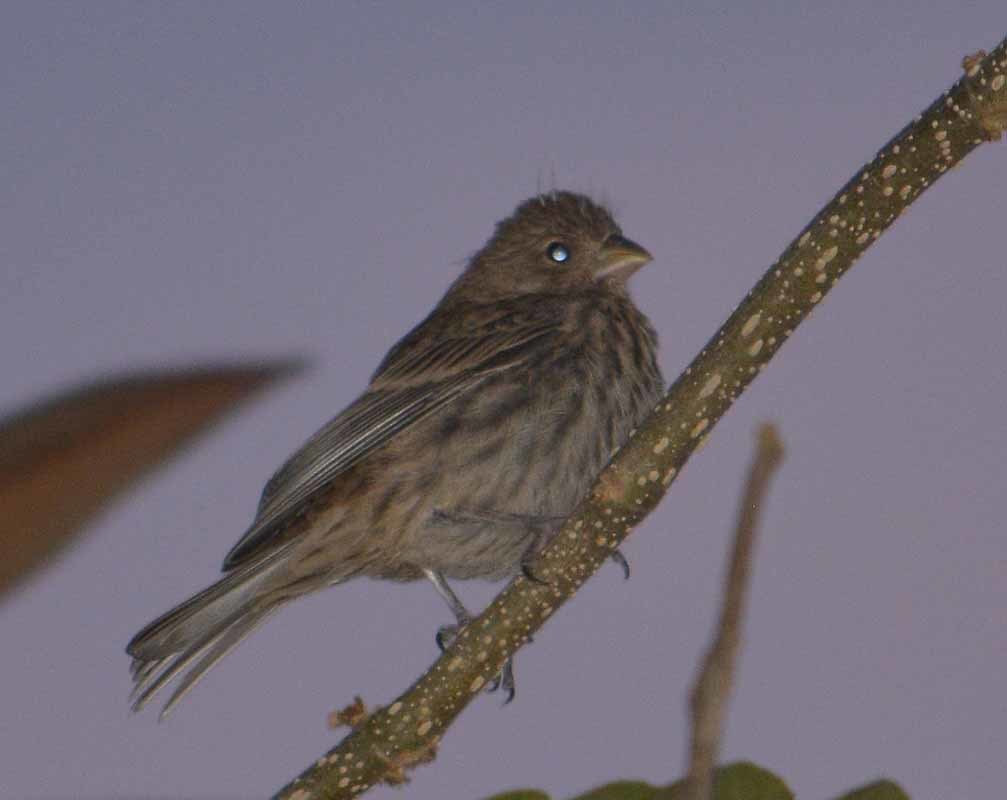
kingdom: Animalia
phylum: Chordata
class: Aves
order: Passeriformes
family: Fringillidae
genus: Haemorhous
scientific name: Haemorhous mexicanus
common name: House finch
